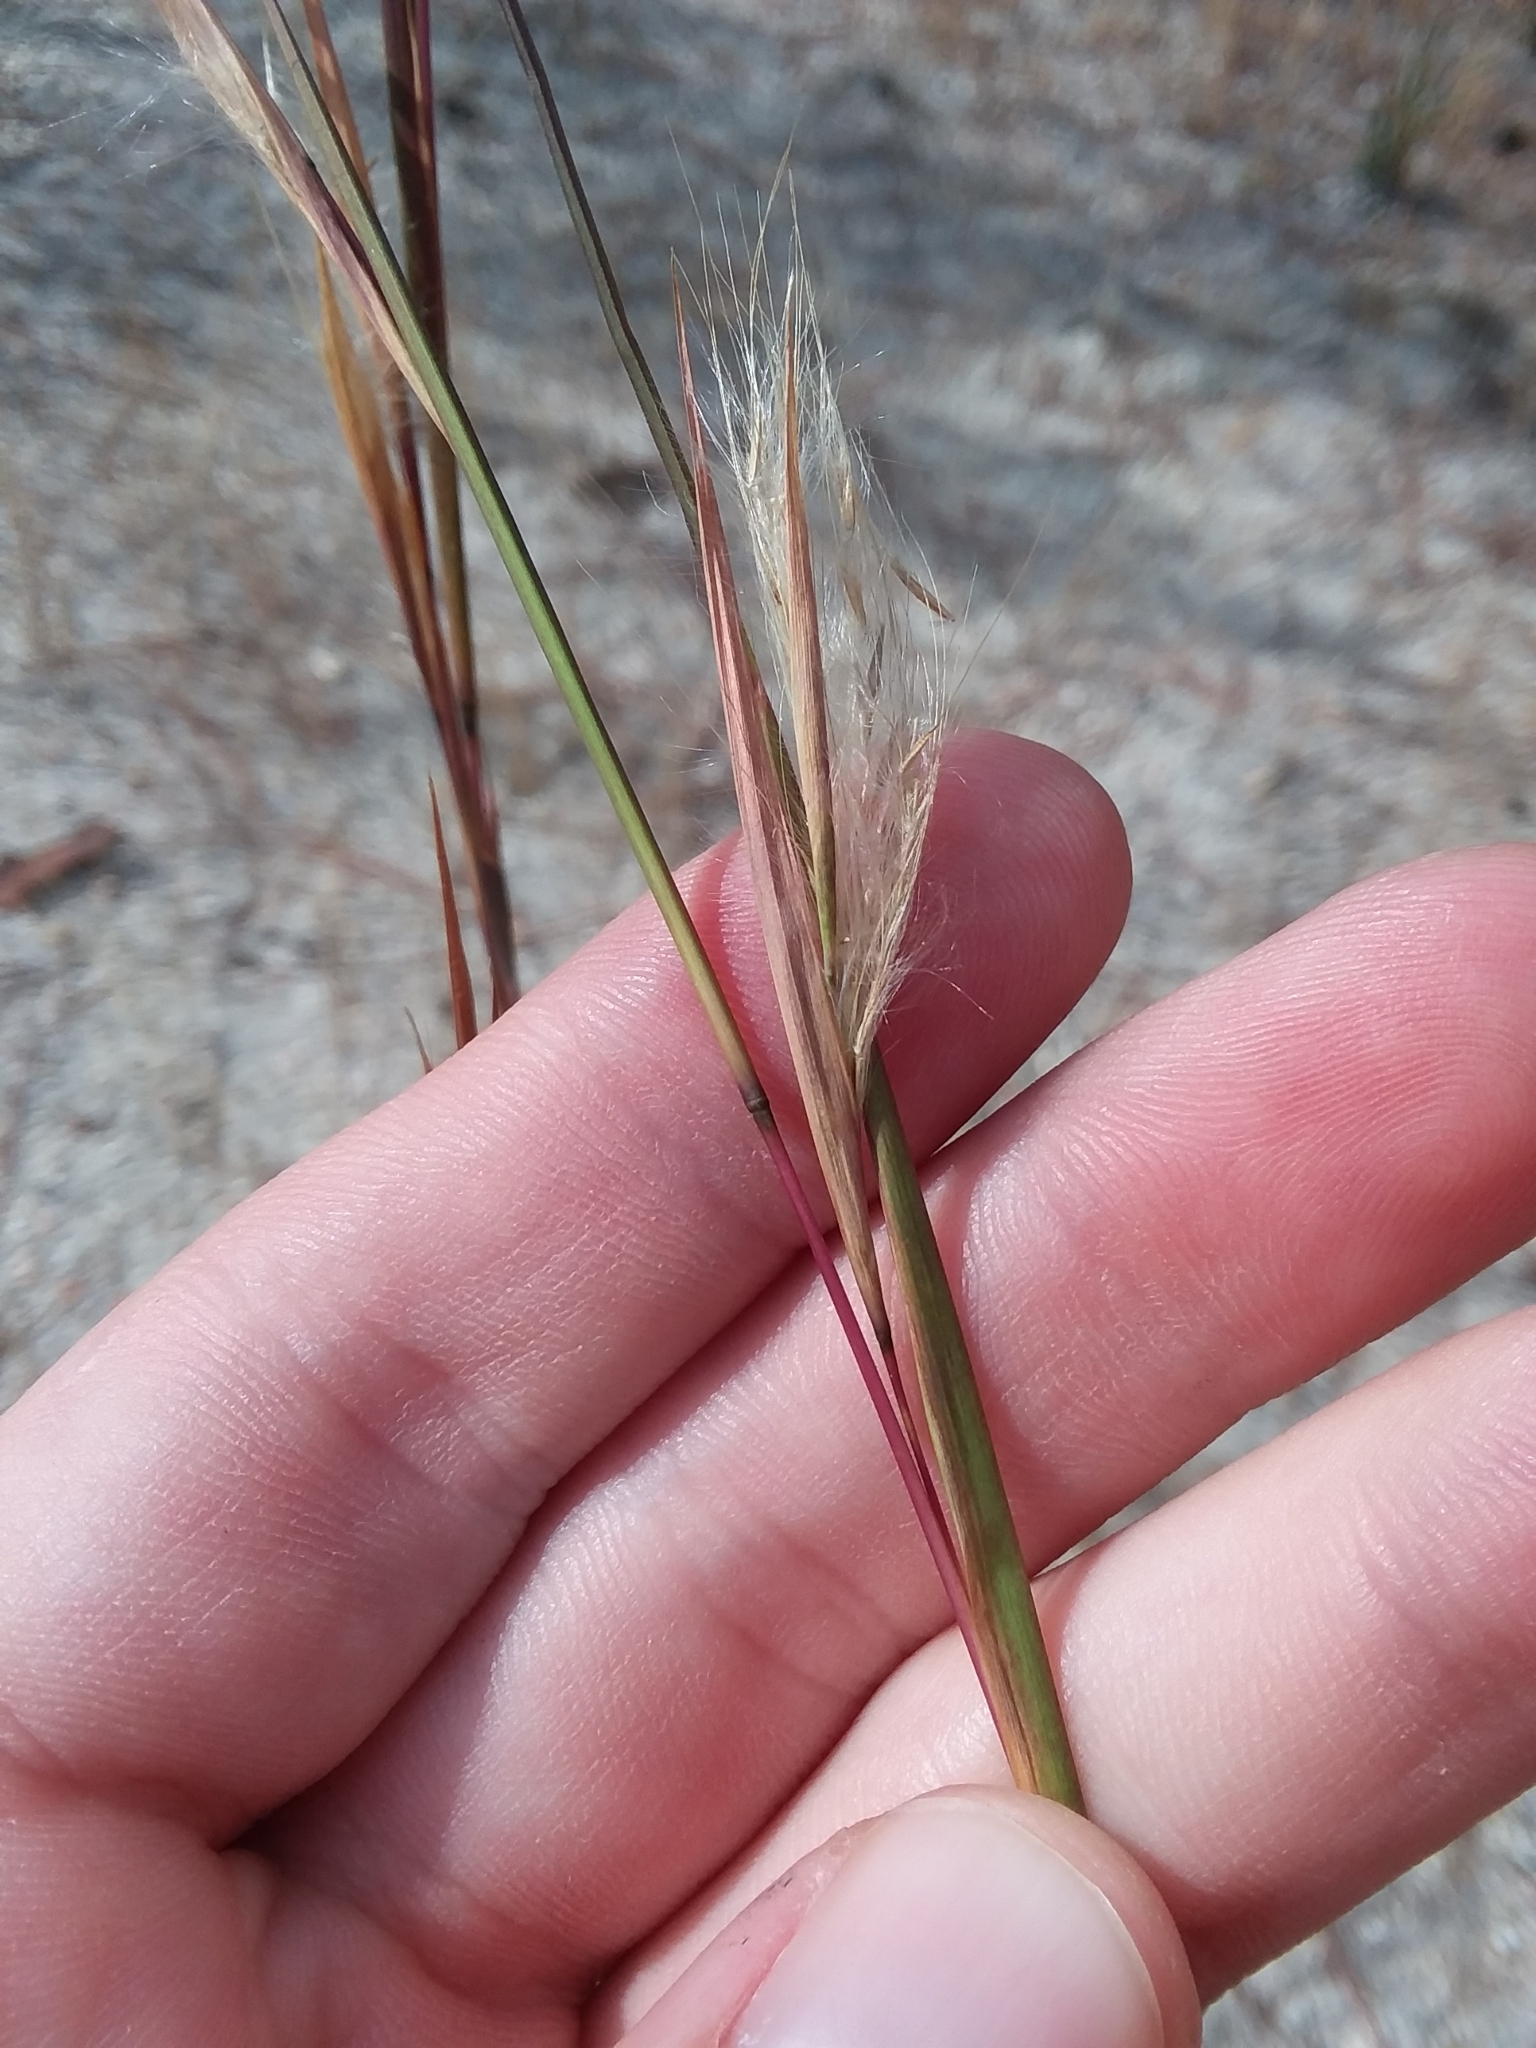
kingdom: Plantae
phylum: Tracheophyta
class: Liliopsida
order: Poales
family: Poaceae
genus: Andropogon
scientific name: Andropogon virginicus
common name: Broomsedge bluestem
